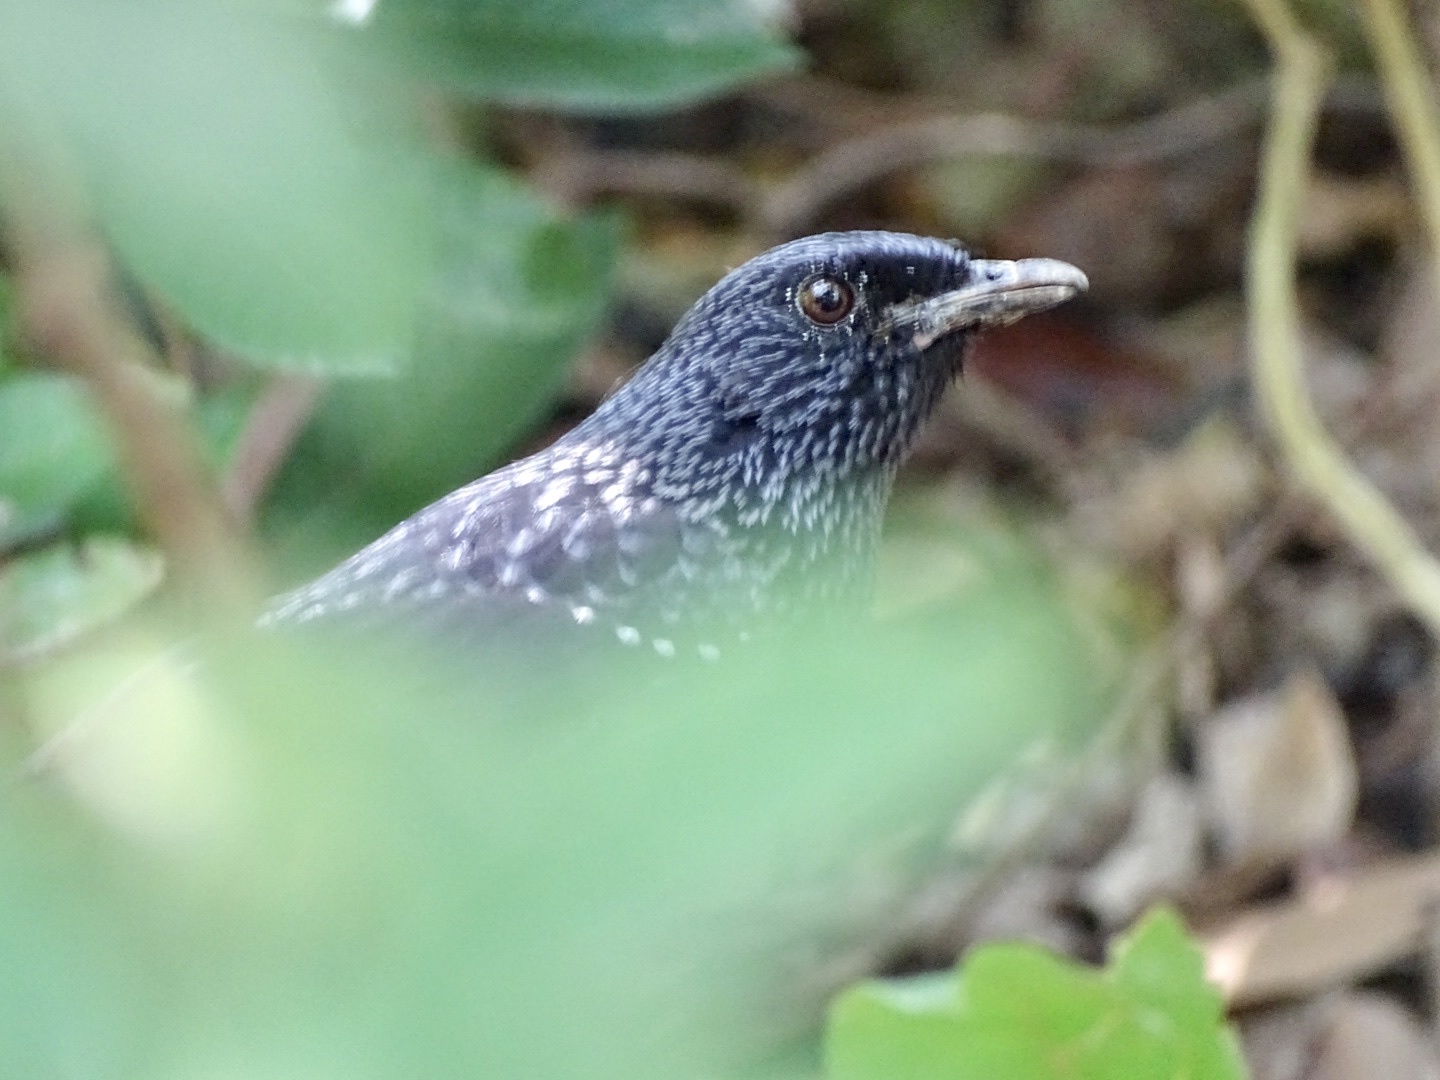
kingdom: Animalia
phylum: Chordata
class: Aves
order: Passeriformes
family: Muscicapidae
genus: Myophonus
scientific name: Myophonus caeruleus
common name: Blue whistling-thrush
